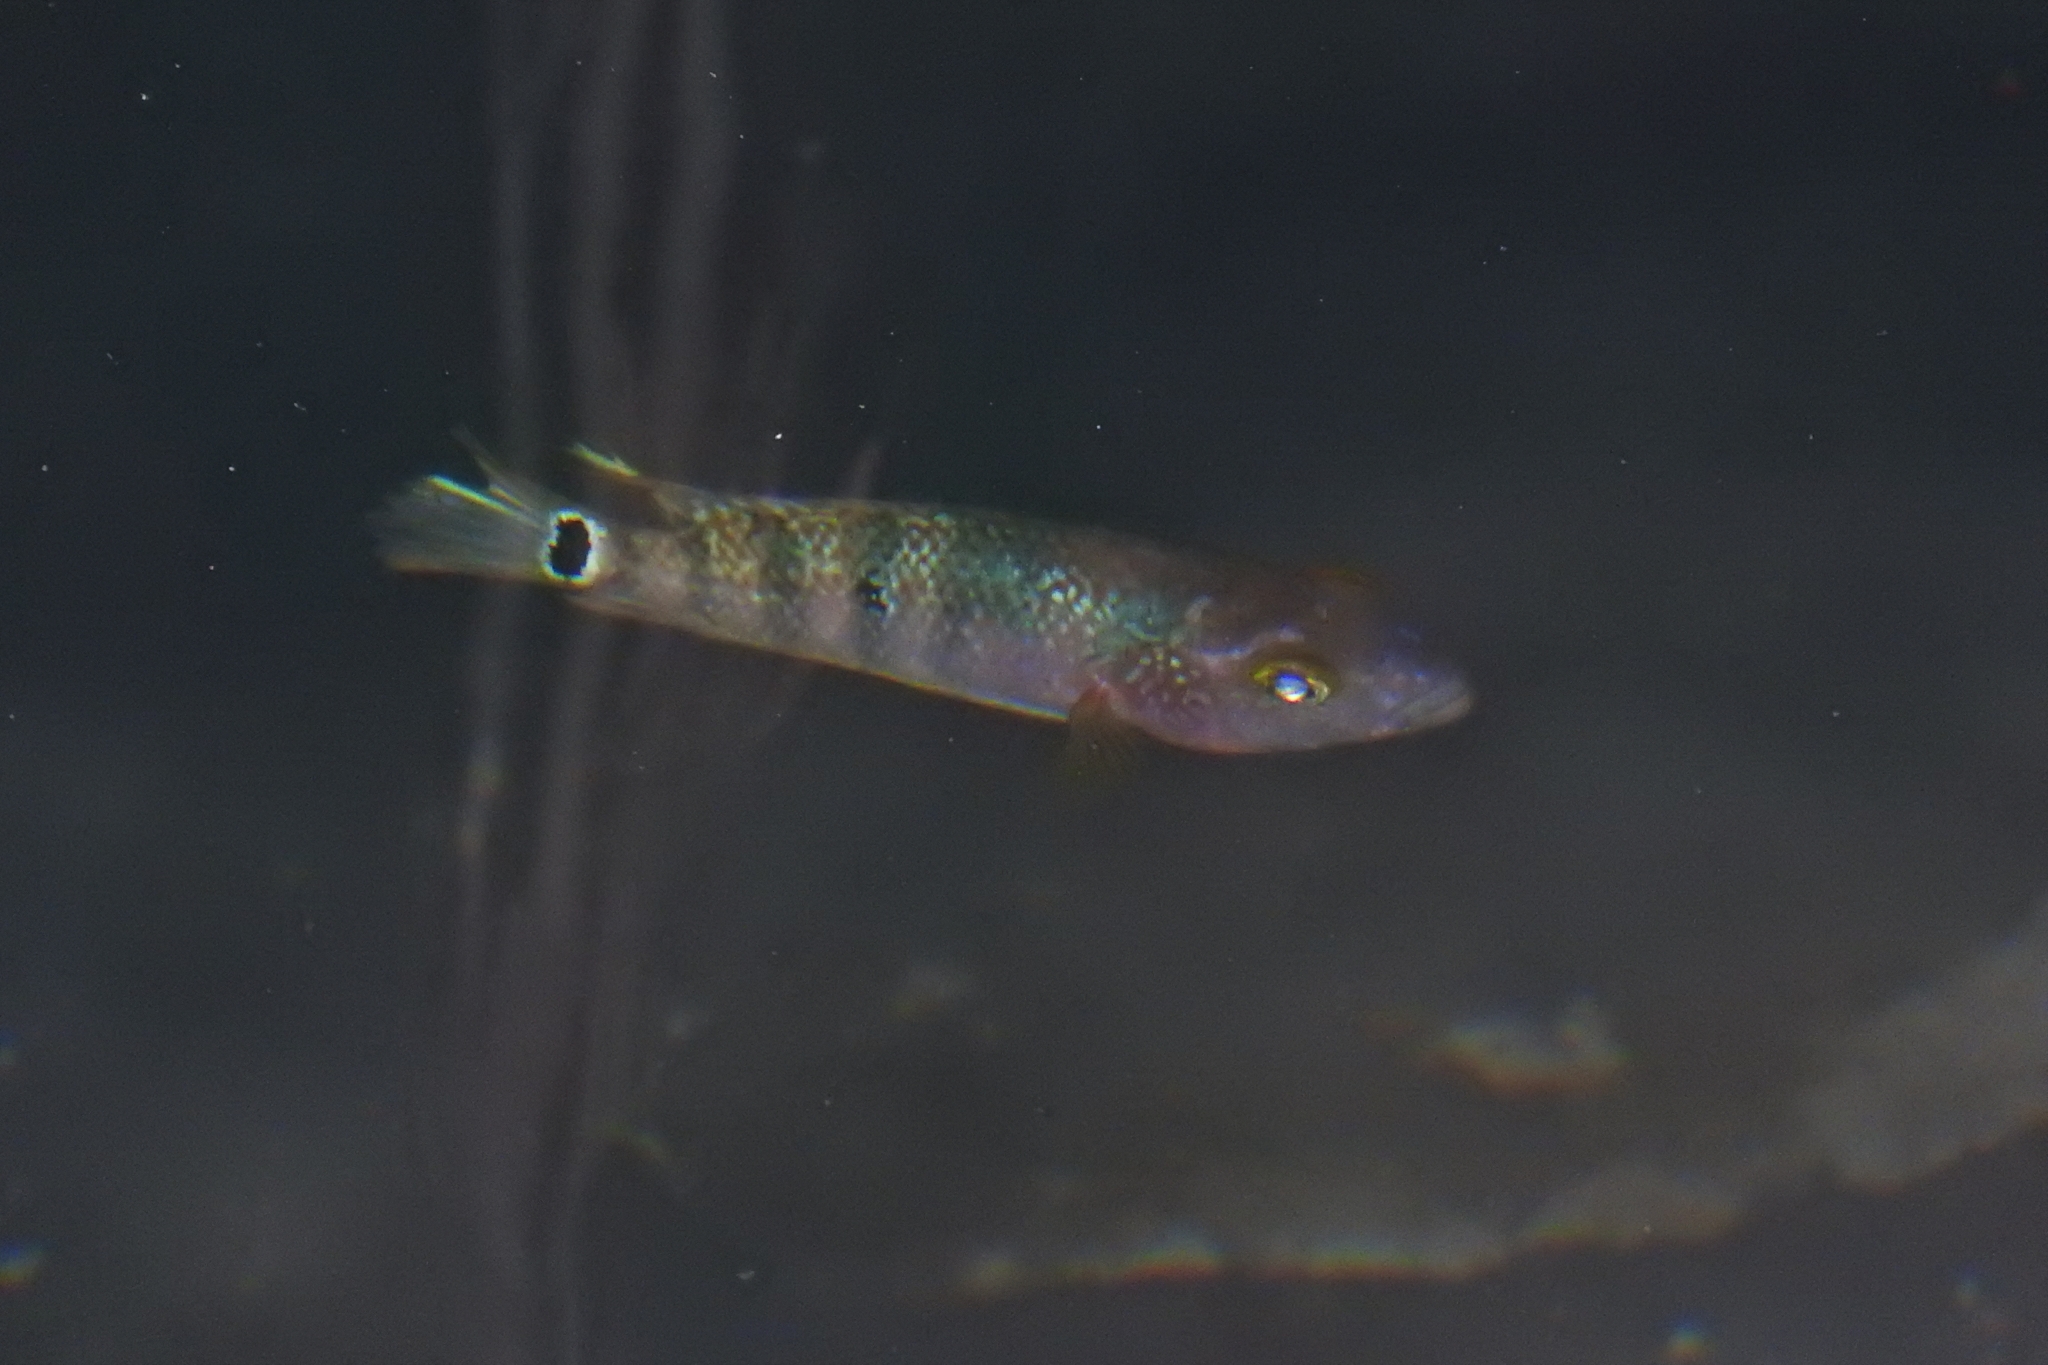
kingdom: Animalia
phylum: Chordata
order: Perciformes
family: Cichlidae
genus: Mayaheros
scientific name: Mayaheros urophthalmus
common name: Mayan cichlid
